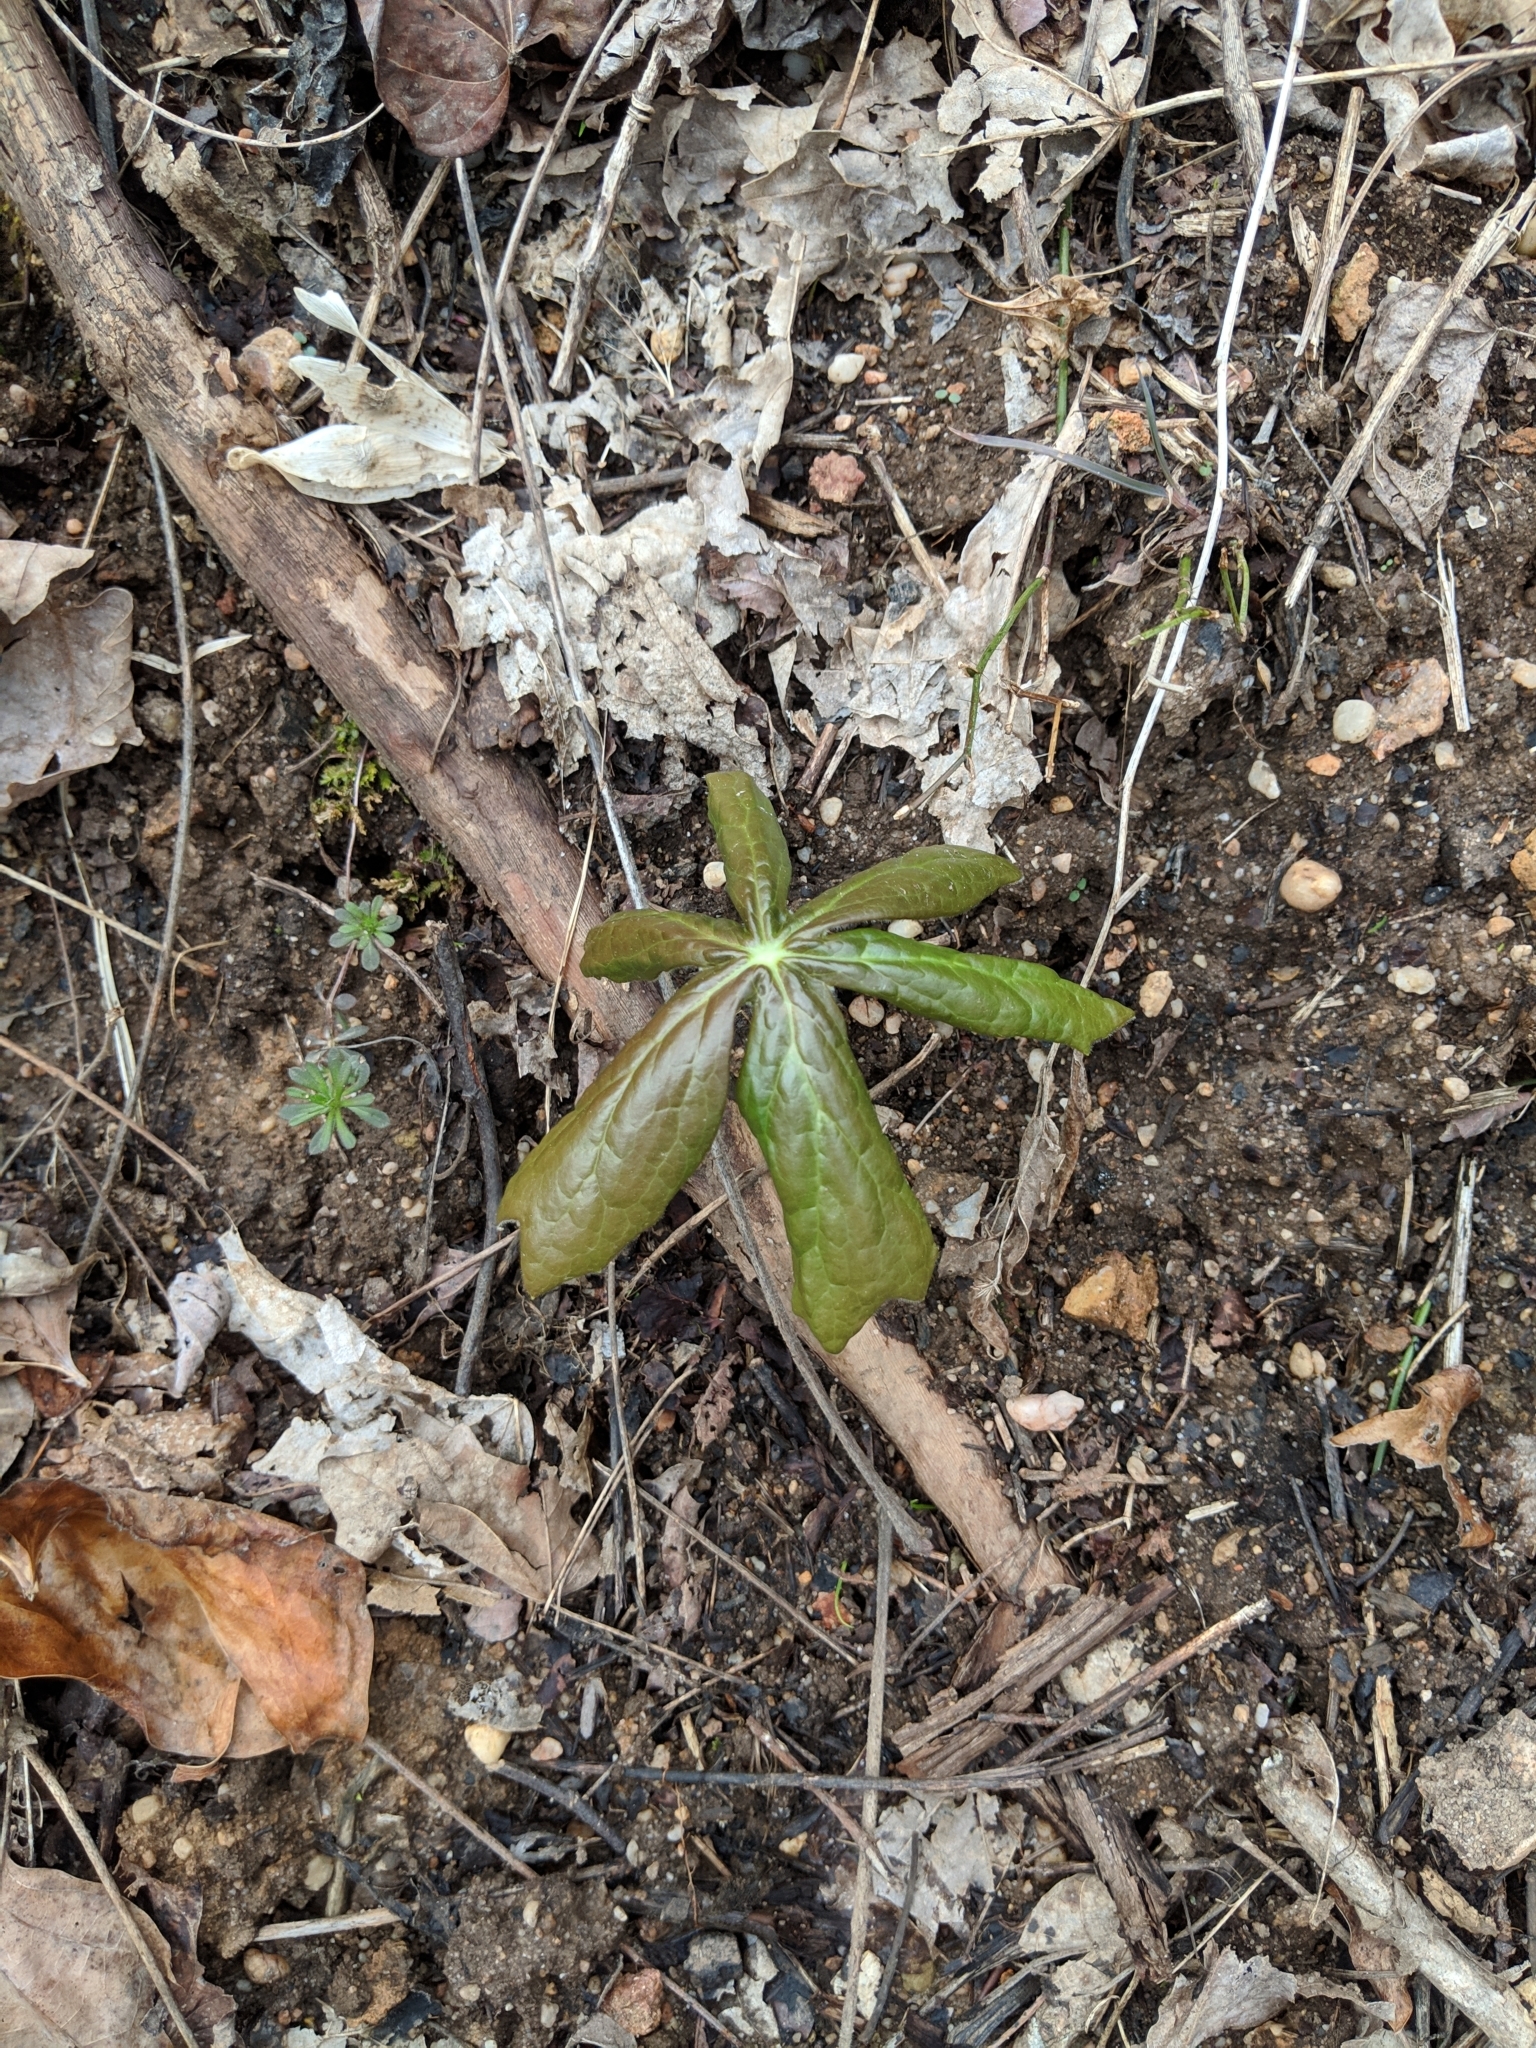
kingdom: Plantae
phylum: Tracheophyta
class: Magnoliopsida
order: Ranunculales
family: Berberidaceae
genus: Podophyllum
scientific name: Podophyllum peltatum
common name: Wild mandrake
